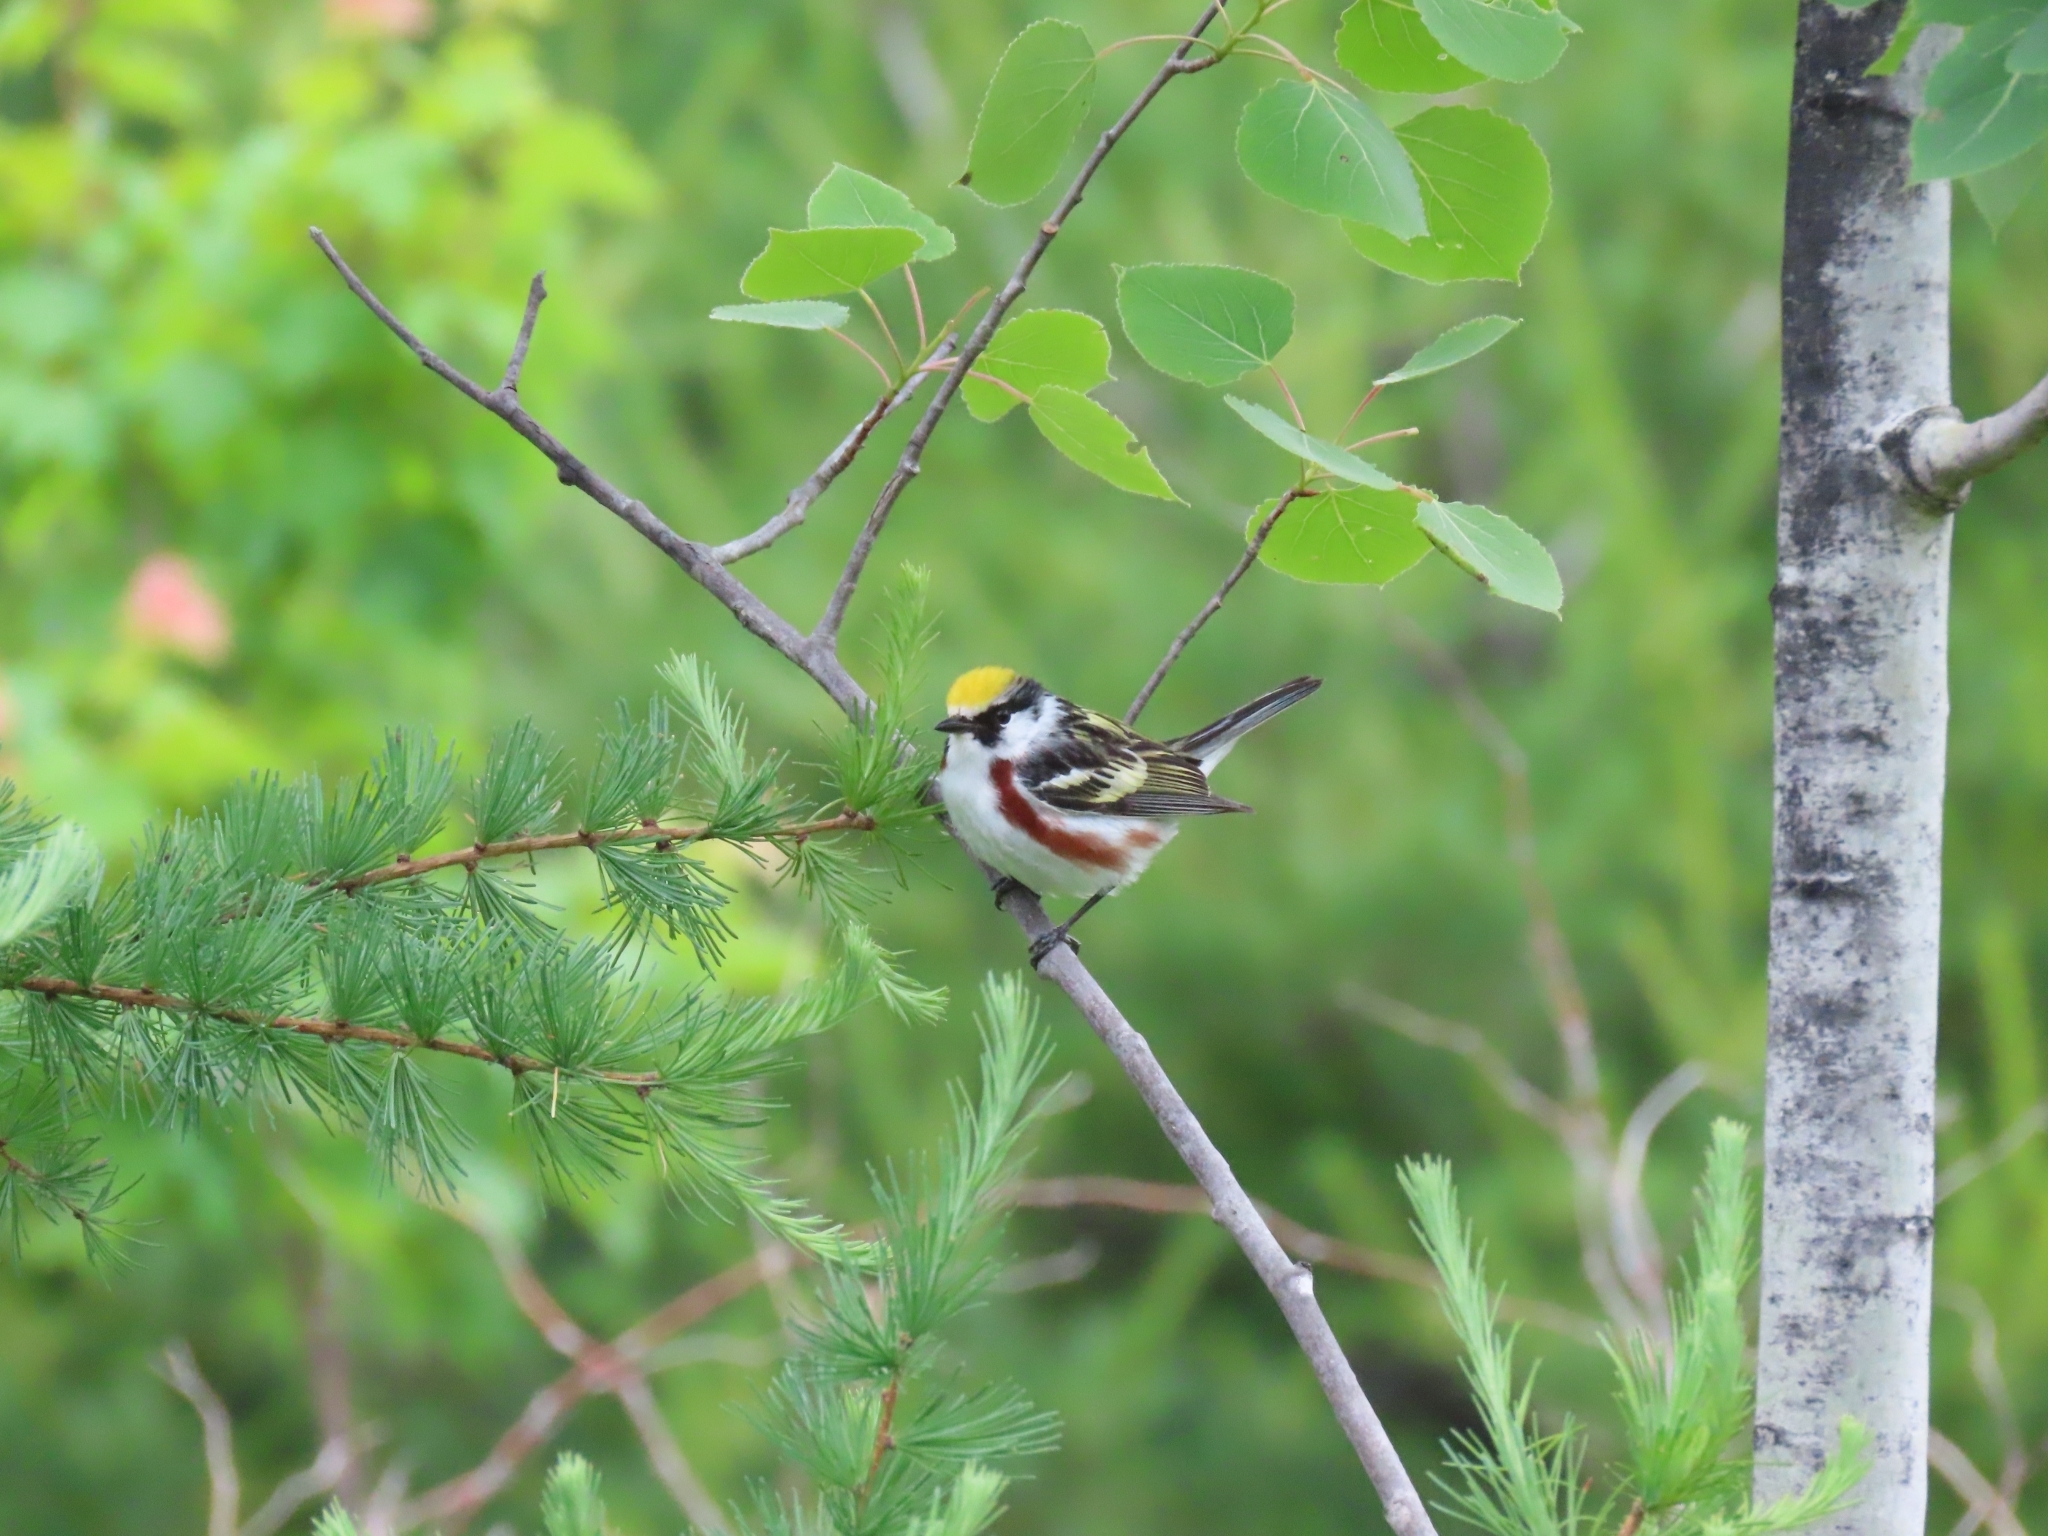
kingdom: Animalia
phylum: Chordata
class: Aves
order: Passeriformes
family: Parulidae
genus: Setophaga
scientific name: Setophaga pensylvanica
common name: Chestnut-sided warbler
